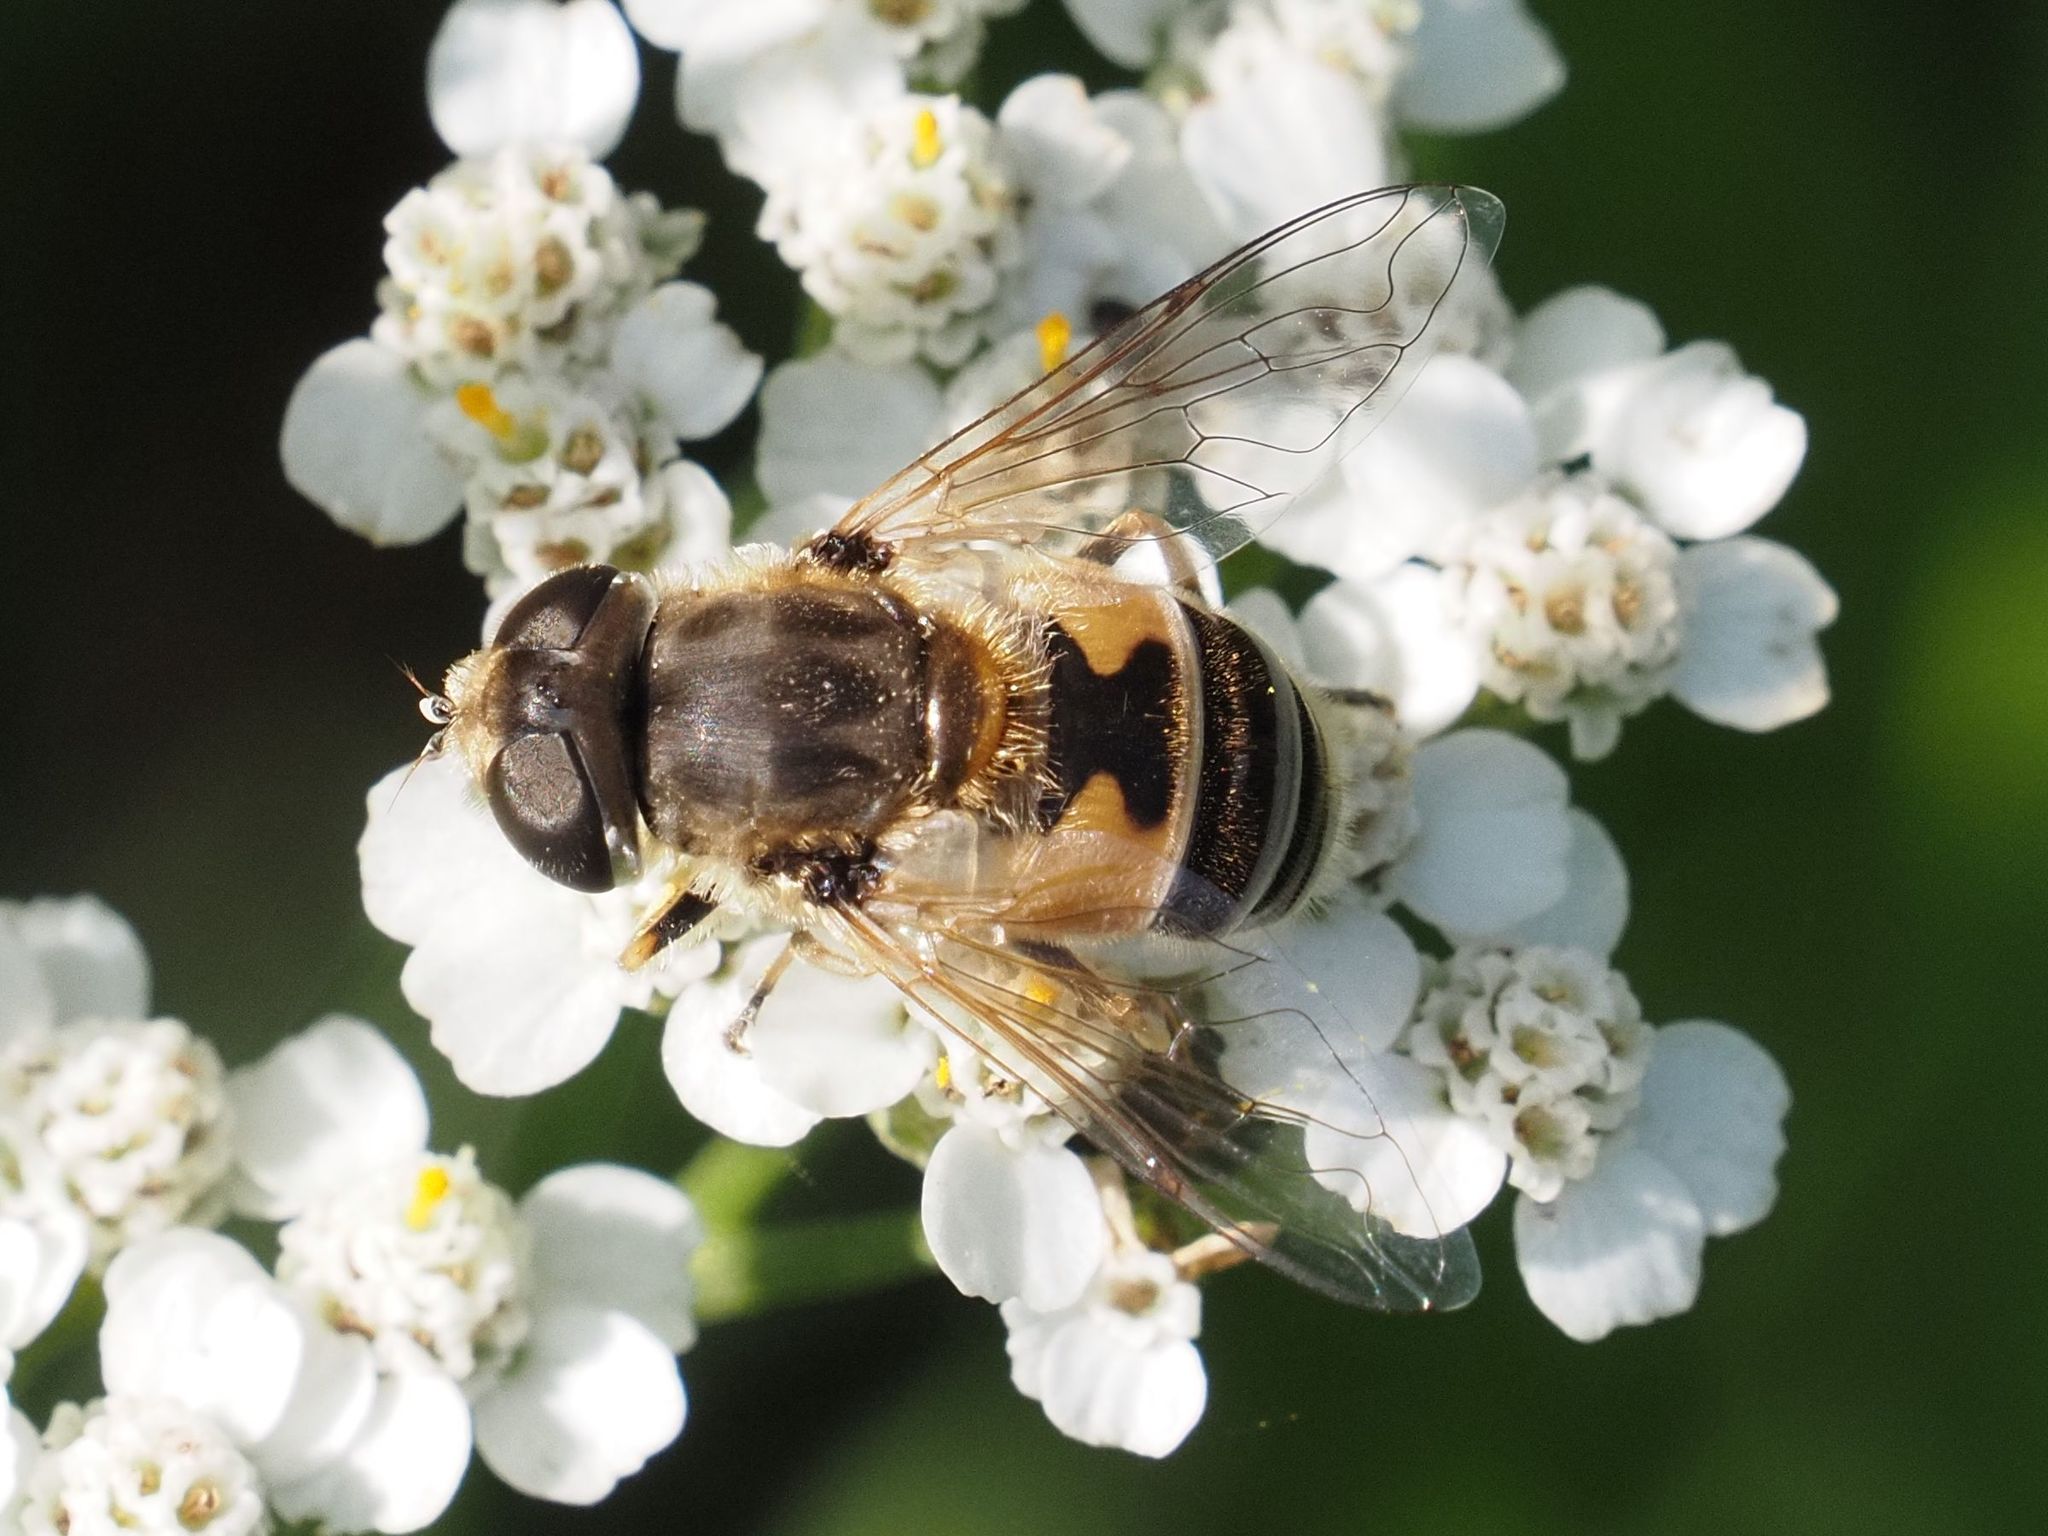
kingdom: Animalia
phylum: Arthropoda
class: Insecta
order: Diptera
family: Syrphidae
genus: Eristalis
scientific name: Eristalis arbustorum
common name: Hover fly
